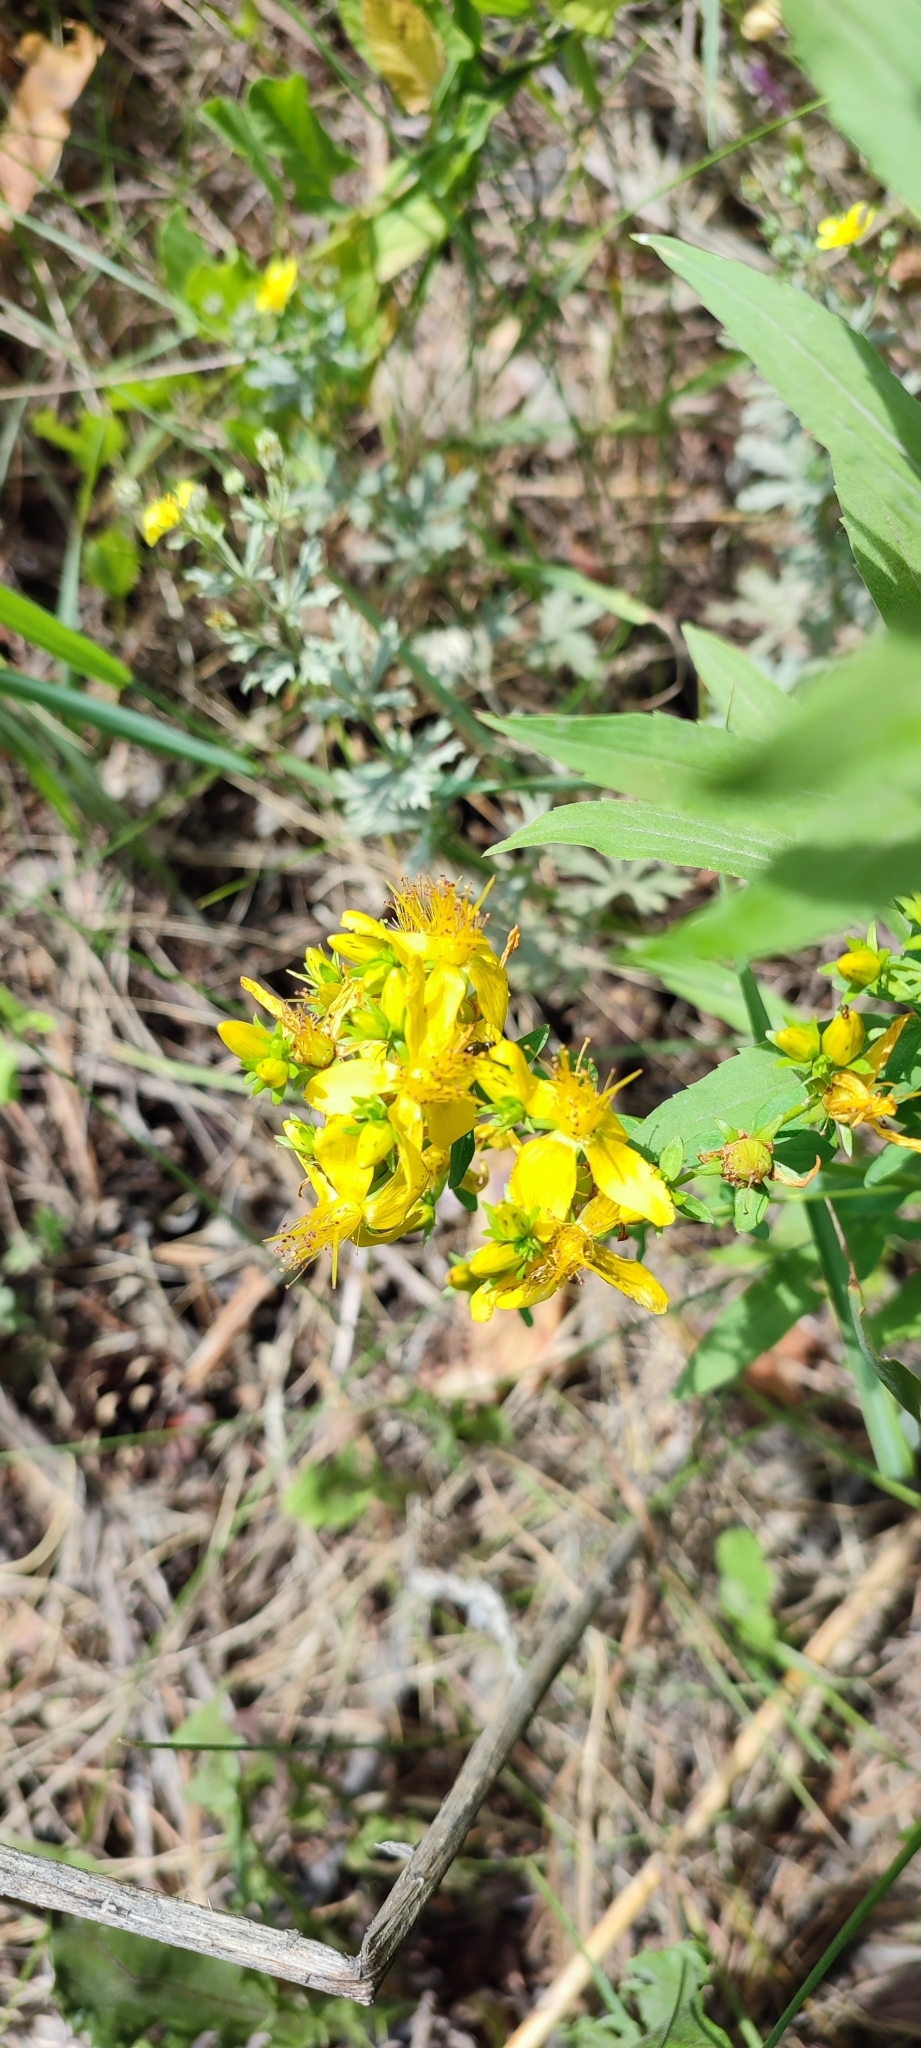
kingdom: Plantae
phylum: Tracheophyta
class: Magnoliopsida
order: Malpighiales
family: Hypericaceae
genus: Hypericum
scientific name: Hypericum perforatum
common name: Common st. johnswort
